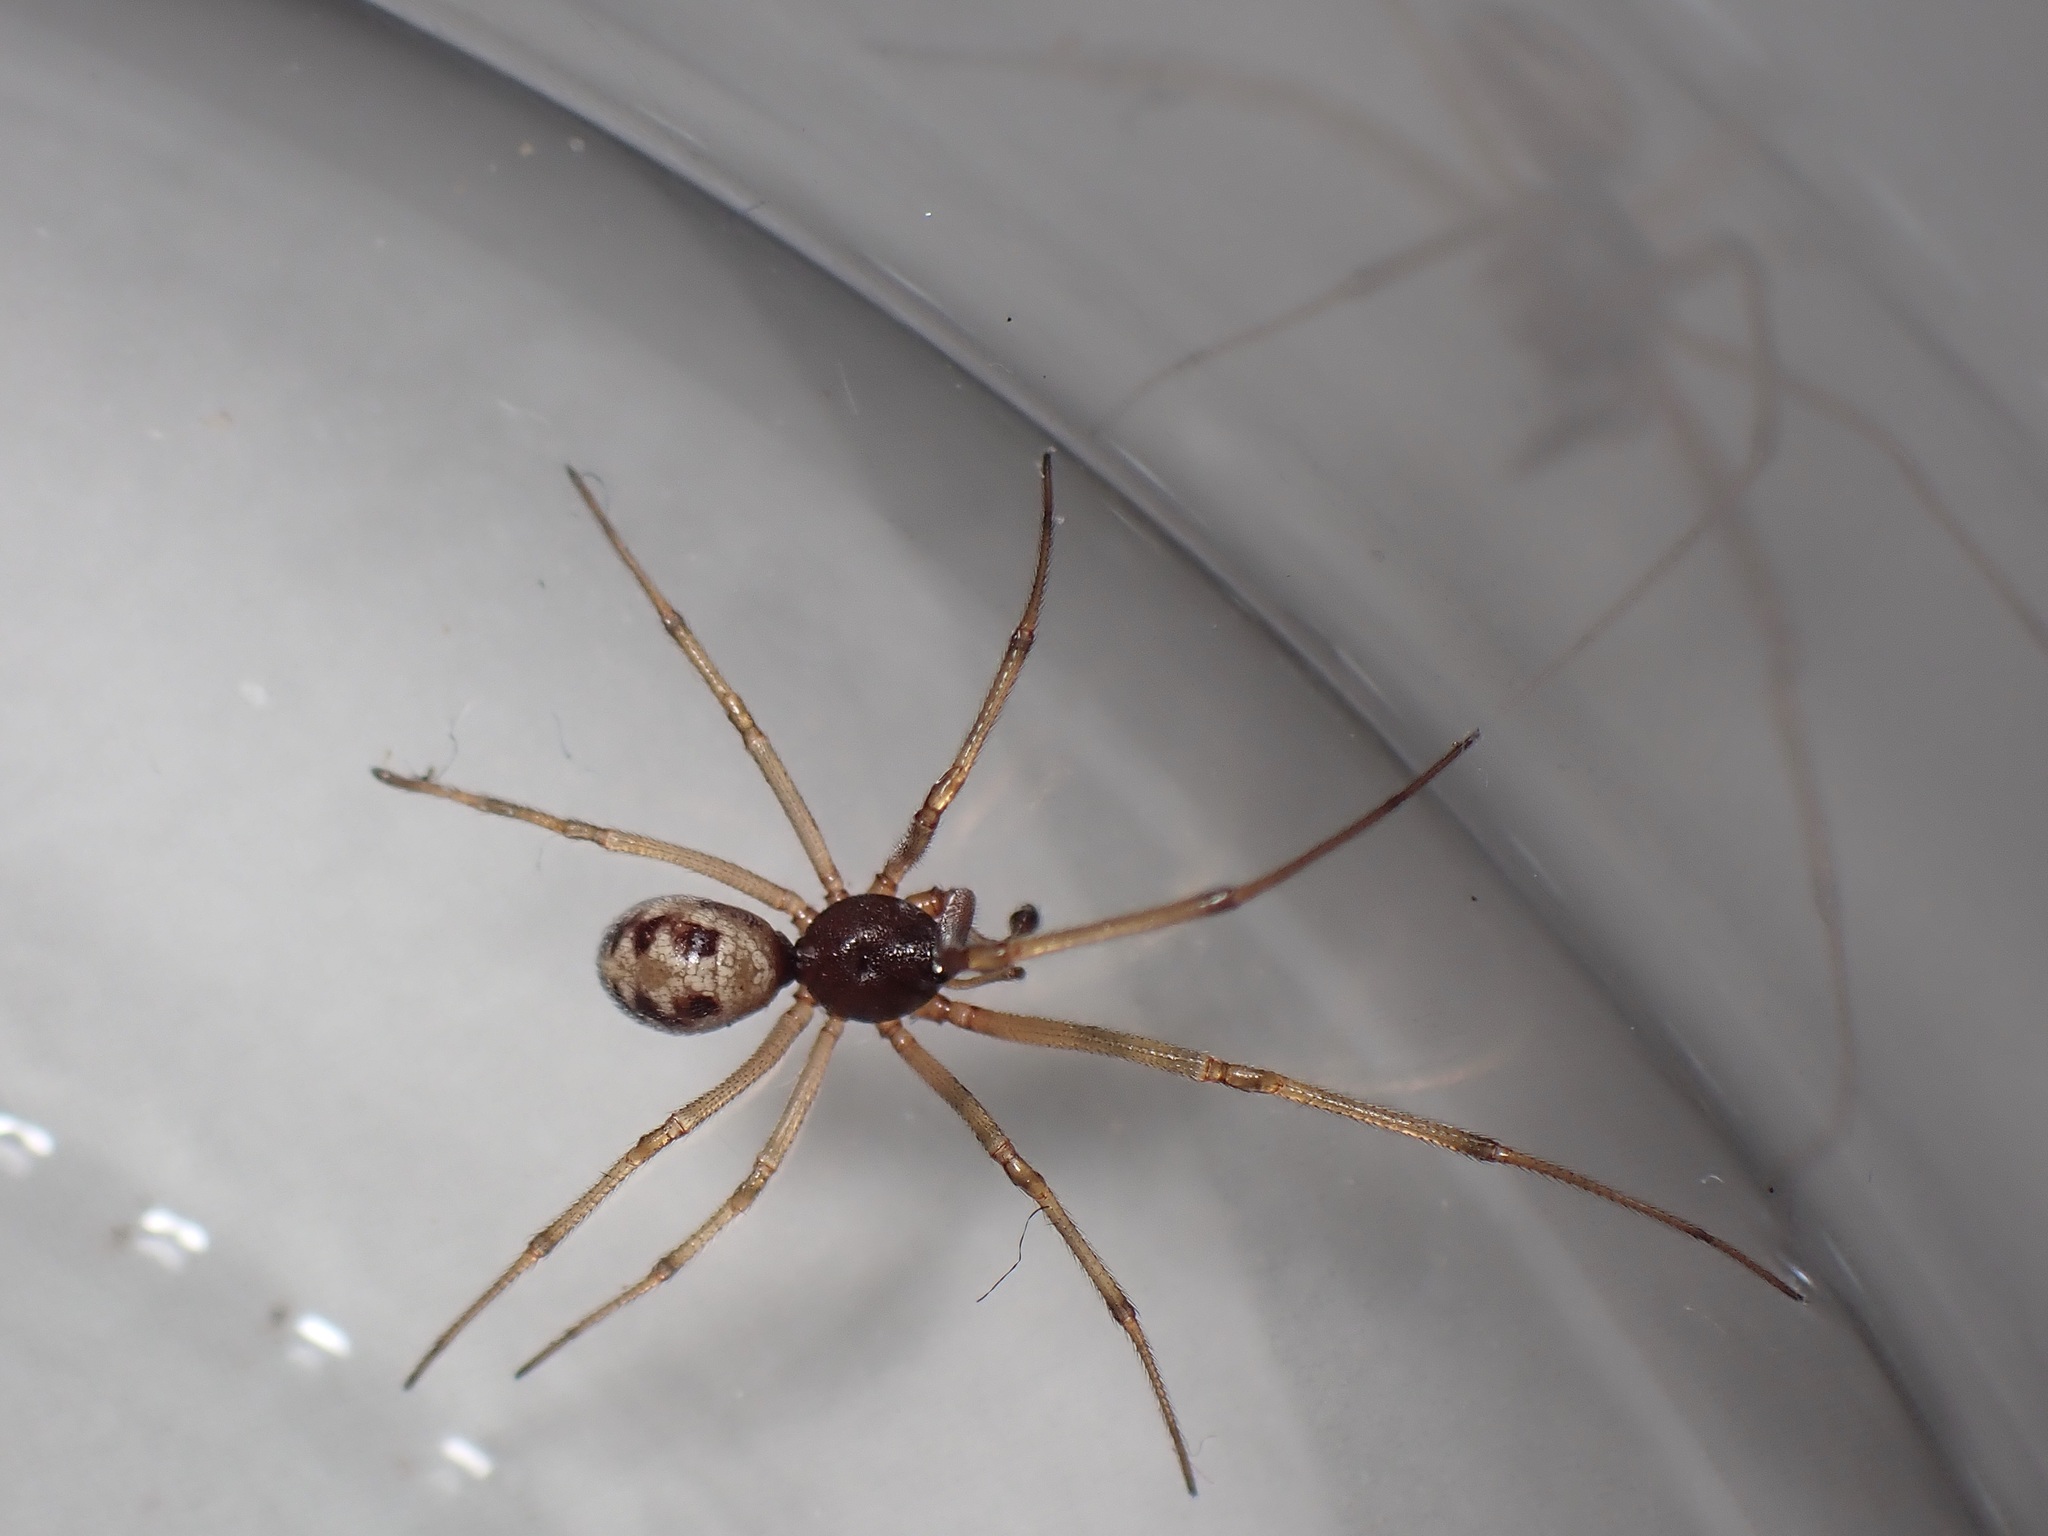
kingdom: Animalia
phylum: Arthropoda
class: Arachnida
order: Araneae
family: Theridiidae
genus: Steatoda
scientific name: Steatoda triangulosa
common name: Triangulate bud spider
